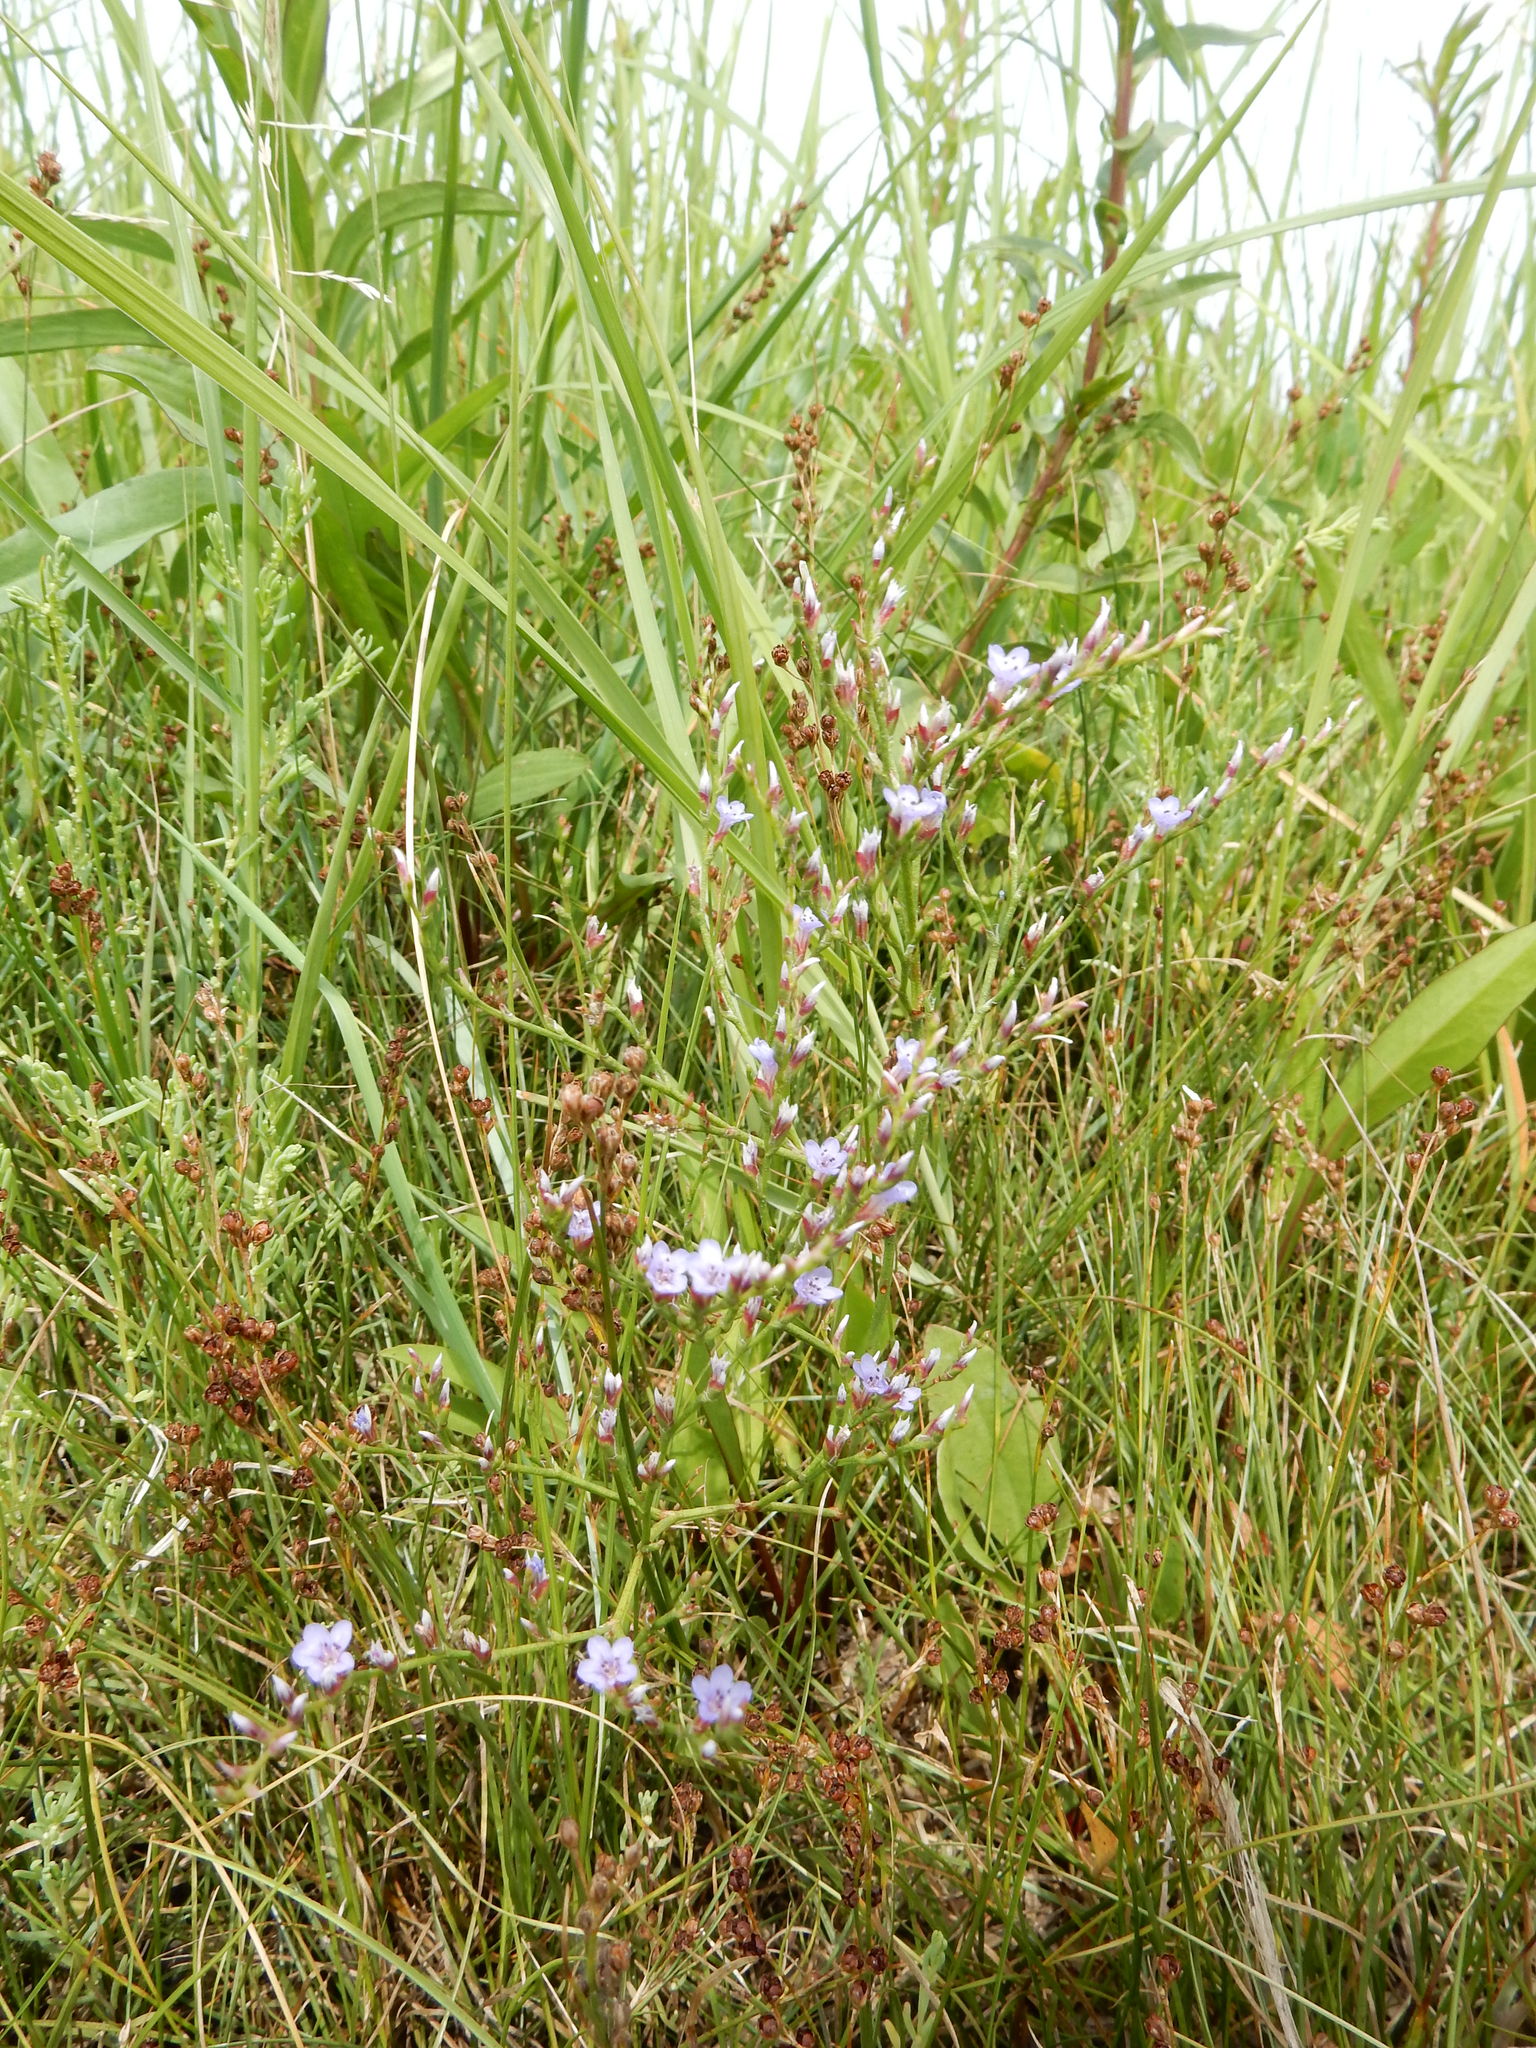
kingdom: Plantae
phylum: Tracheophyta
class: Magnoliopsida
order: Caryophyllales
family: Plumbaginaceae
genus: Limonium
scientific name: Limonium carolinianum
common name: Carolina sea lavender
